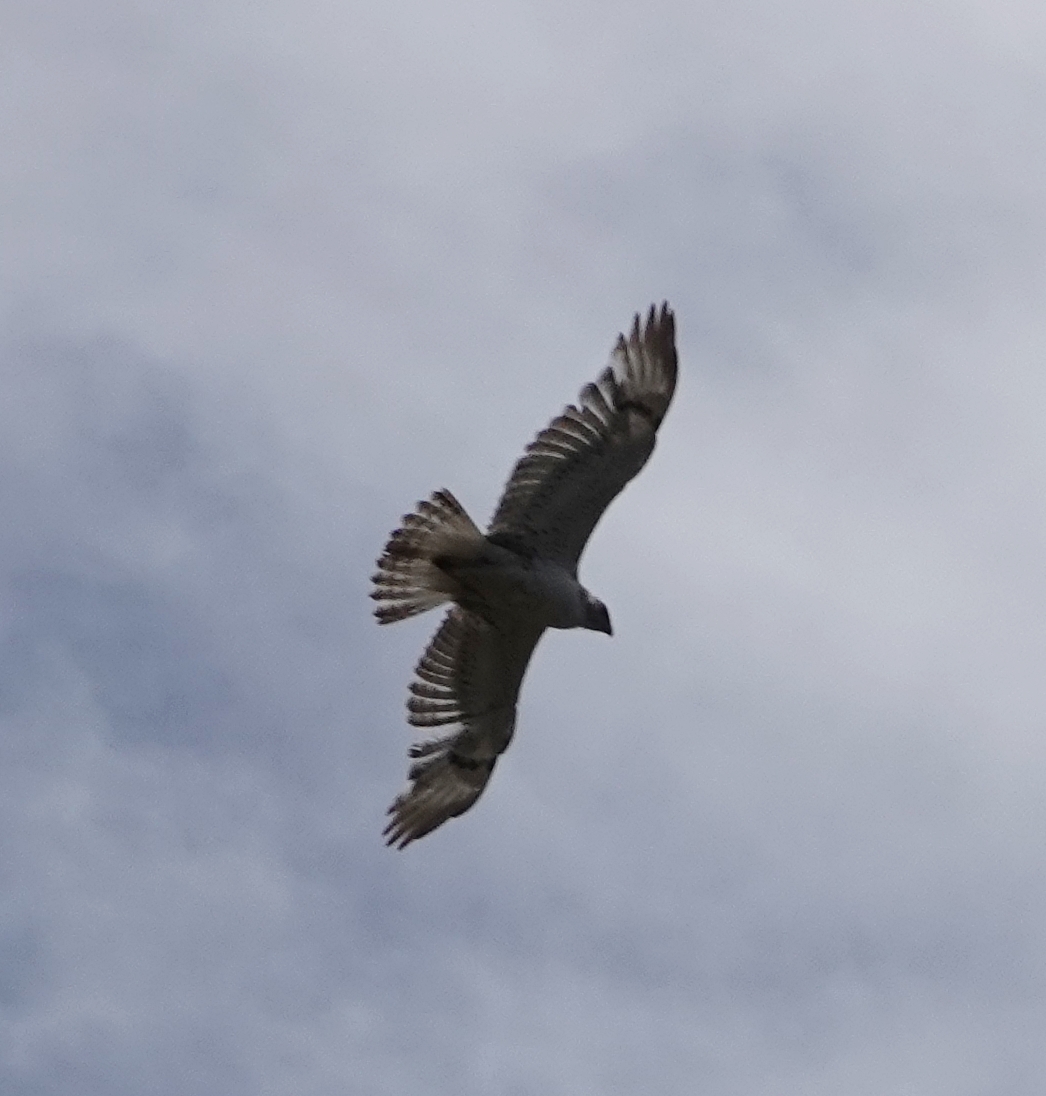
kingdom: Animalia
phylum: Chordata
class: Aves
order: Accipitriformes
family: Accipitridae
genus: Buteo
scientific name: Buteo regalis
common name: Ferruginous hawk
